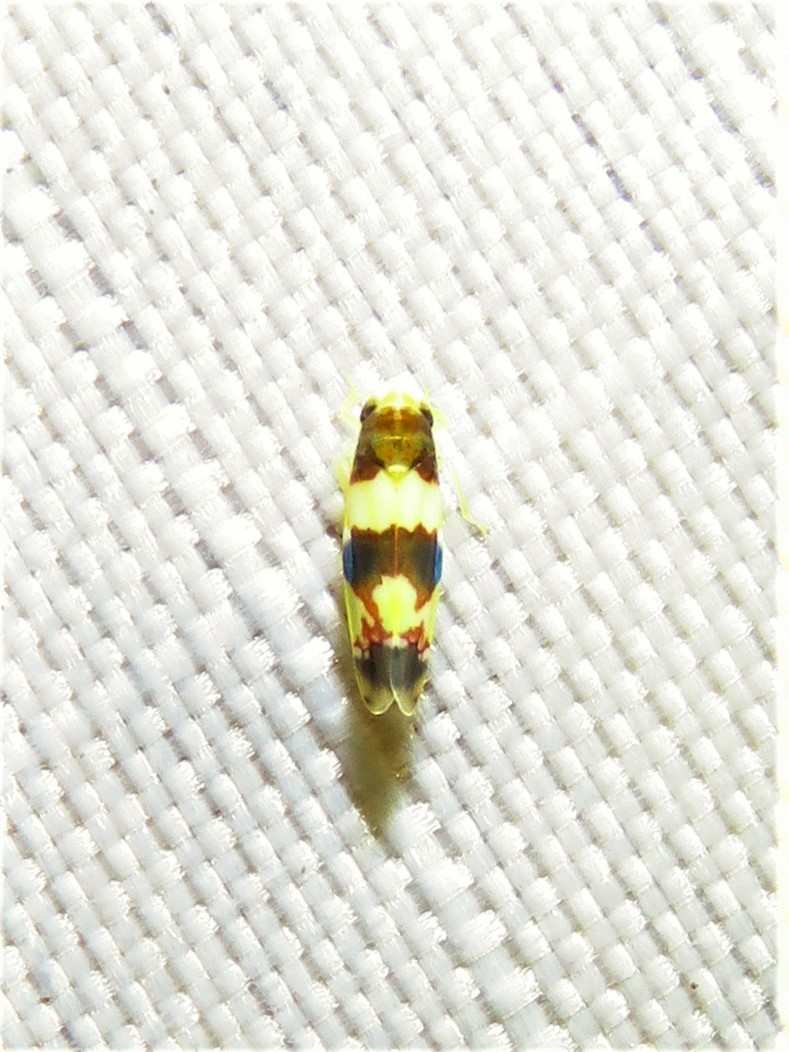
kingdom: Animalia
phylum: Arthropoda
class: Insecta
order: Hemiptera
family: Cicadellidae
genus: Erythroneura
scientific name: Erythroneura bistrata
